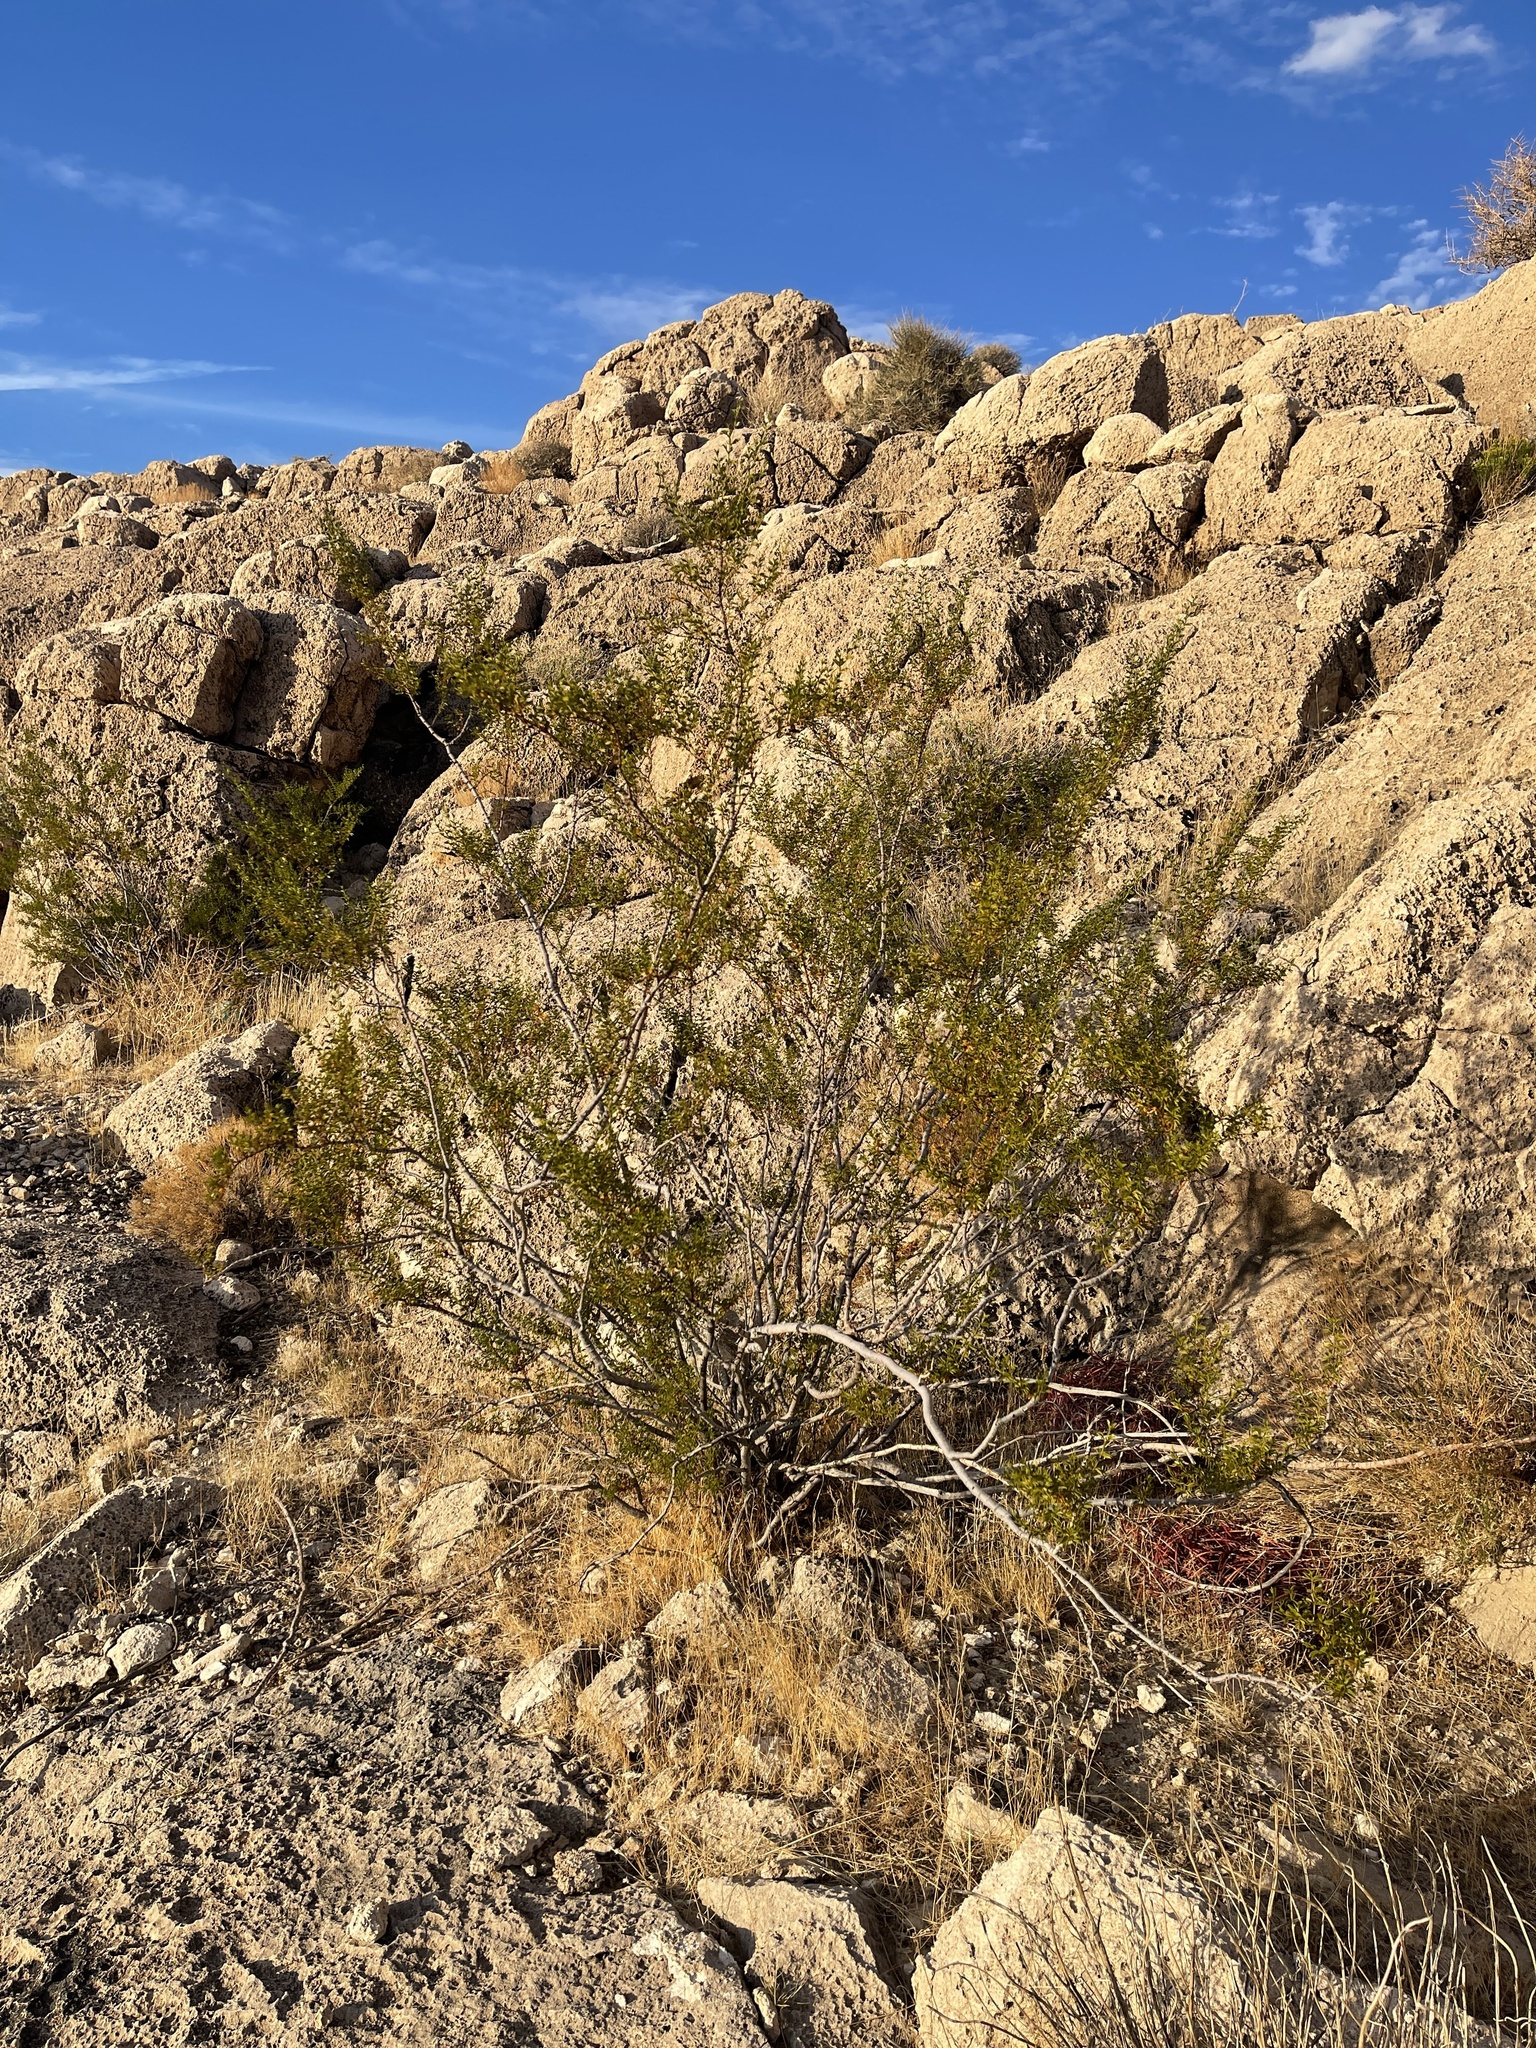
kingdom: Plantae
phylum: Tracheophyta
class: Magnoliopsida
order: Zygophyllales
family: Zygophyllaceae
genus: Larrea
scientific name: Larrea tridentata
